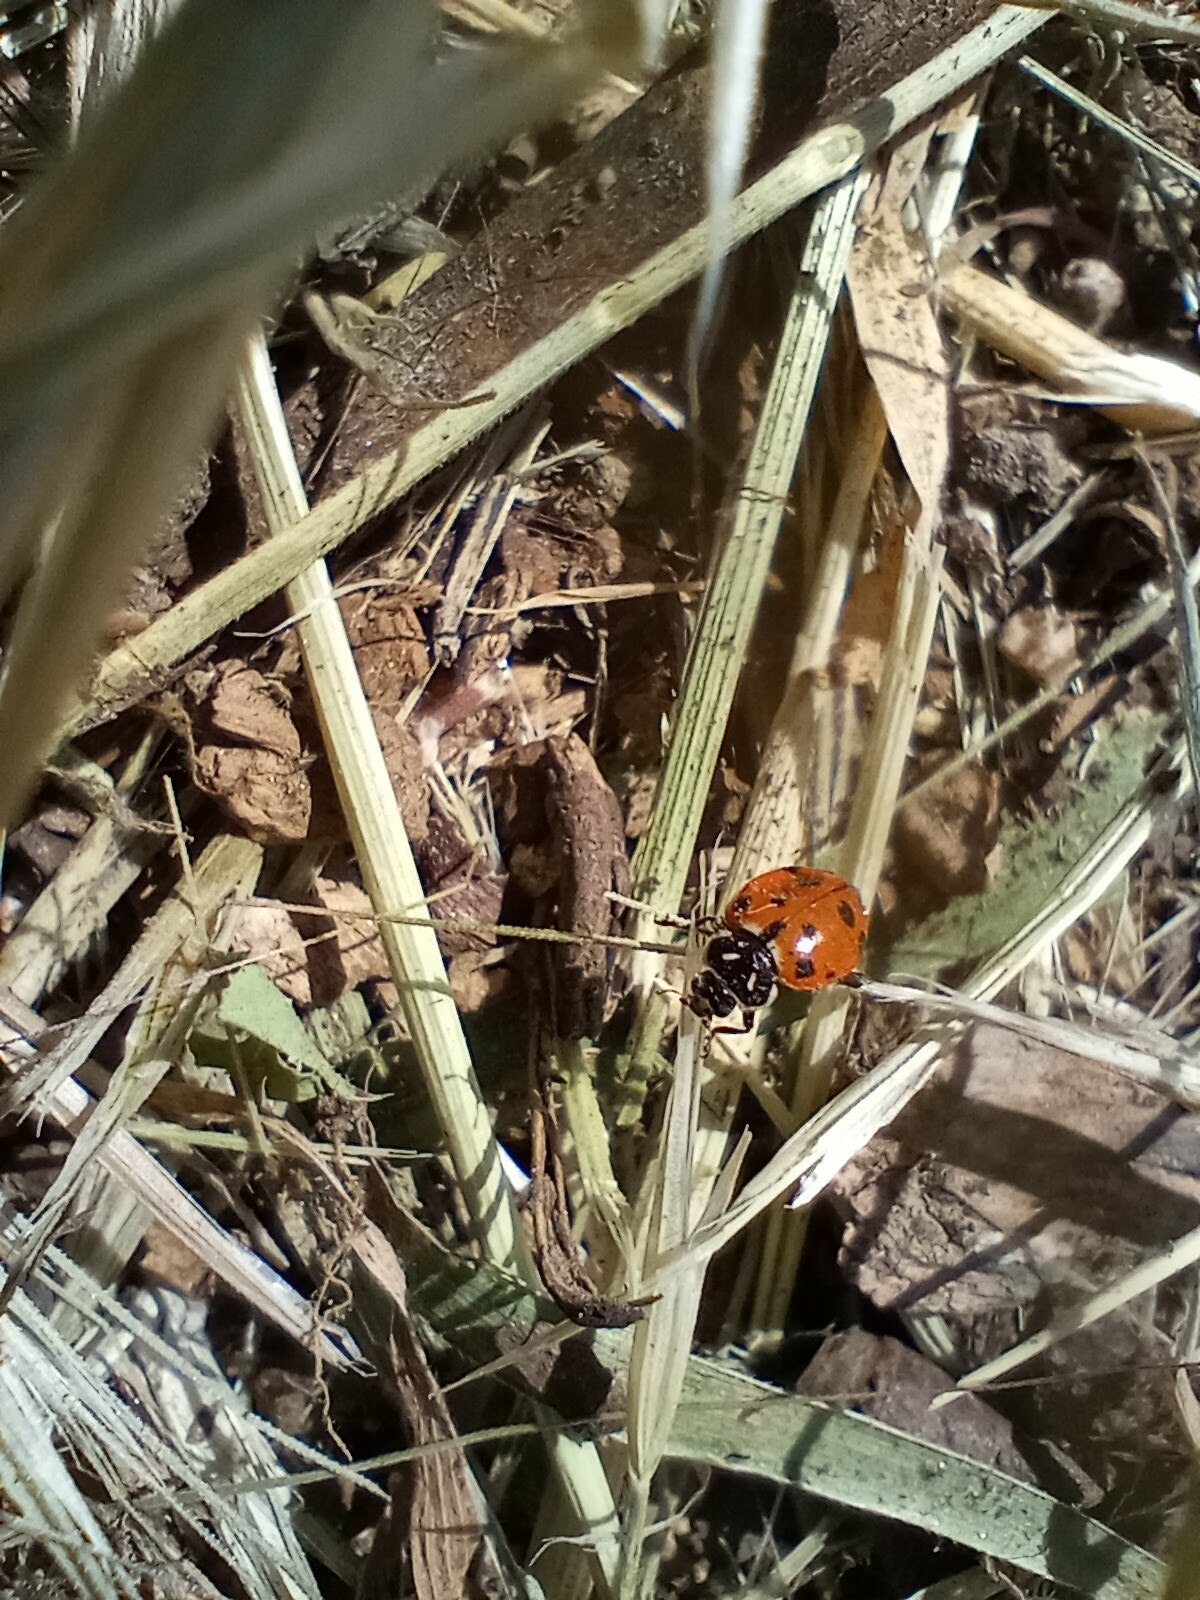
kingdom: Animalia
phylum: Arthropoda
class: Insecta
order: Coleoptera
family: Coccinellidae
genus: Hippodamia
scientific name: Hippodamia convergens
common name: Convergent lady beetle
